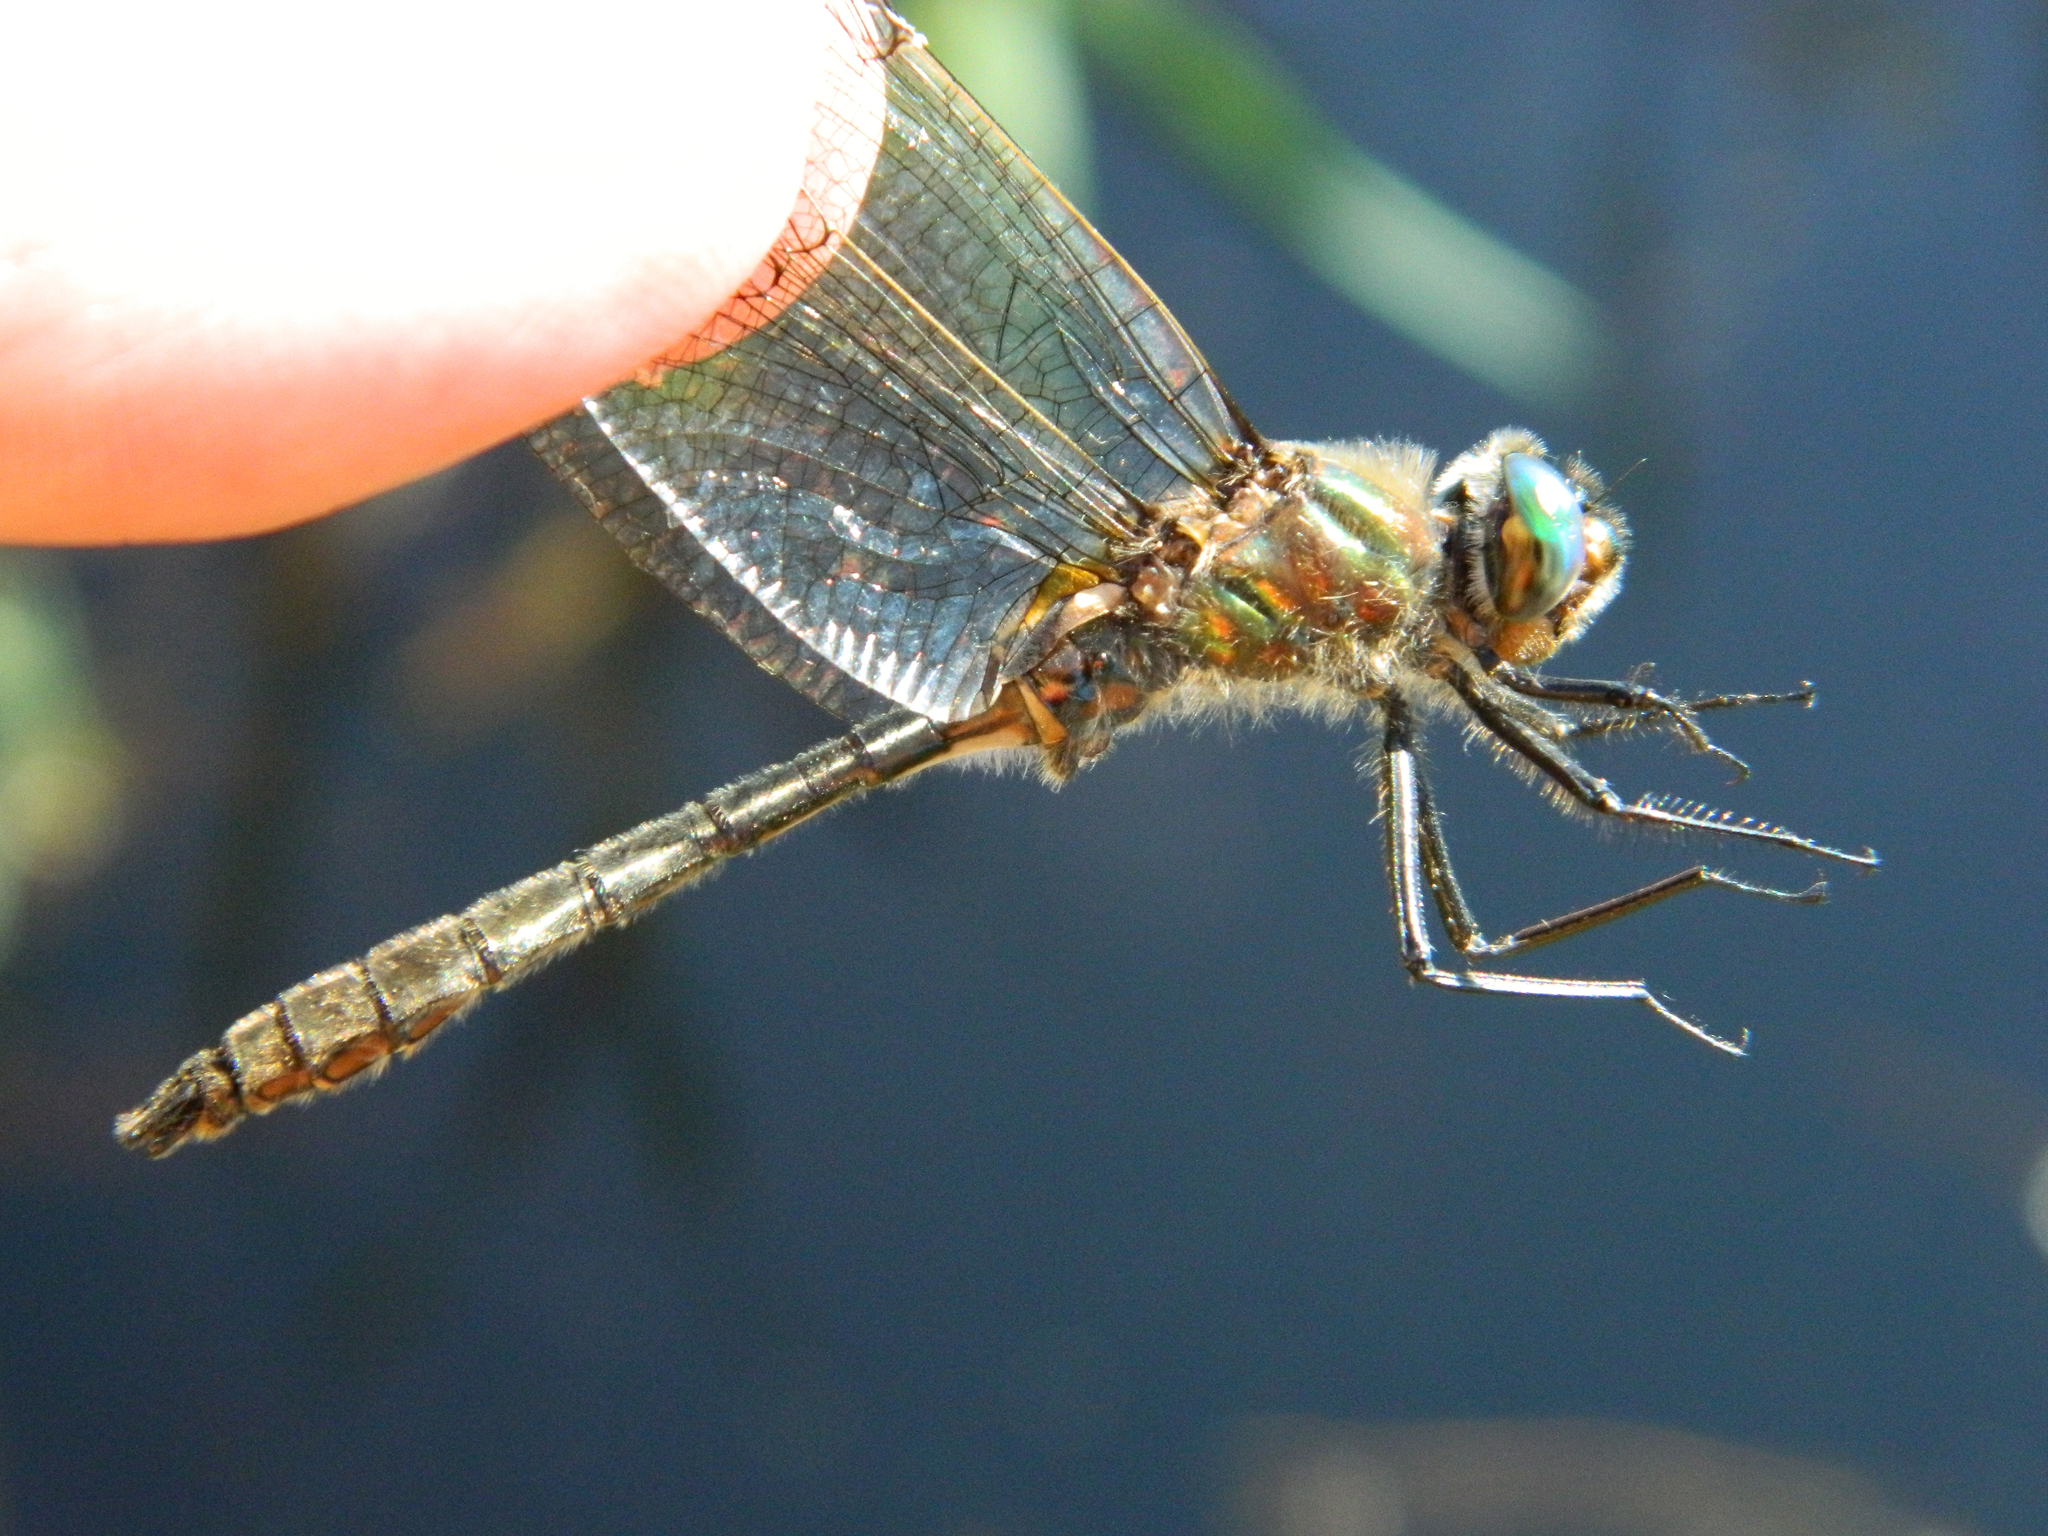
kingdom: Animalia
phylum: Arthropoda
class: Insecta
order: Odonata
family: Corduliidae
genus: Cordulia
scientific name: Cordulia shurtleffii
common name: American emerald
